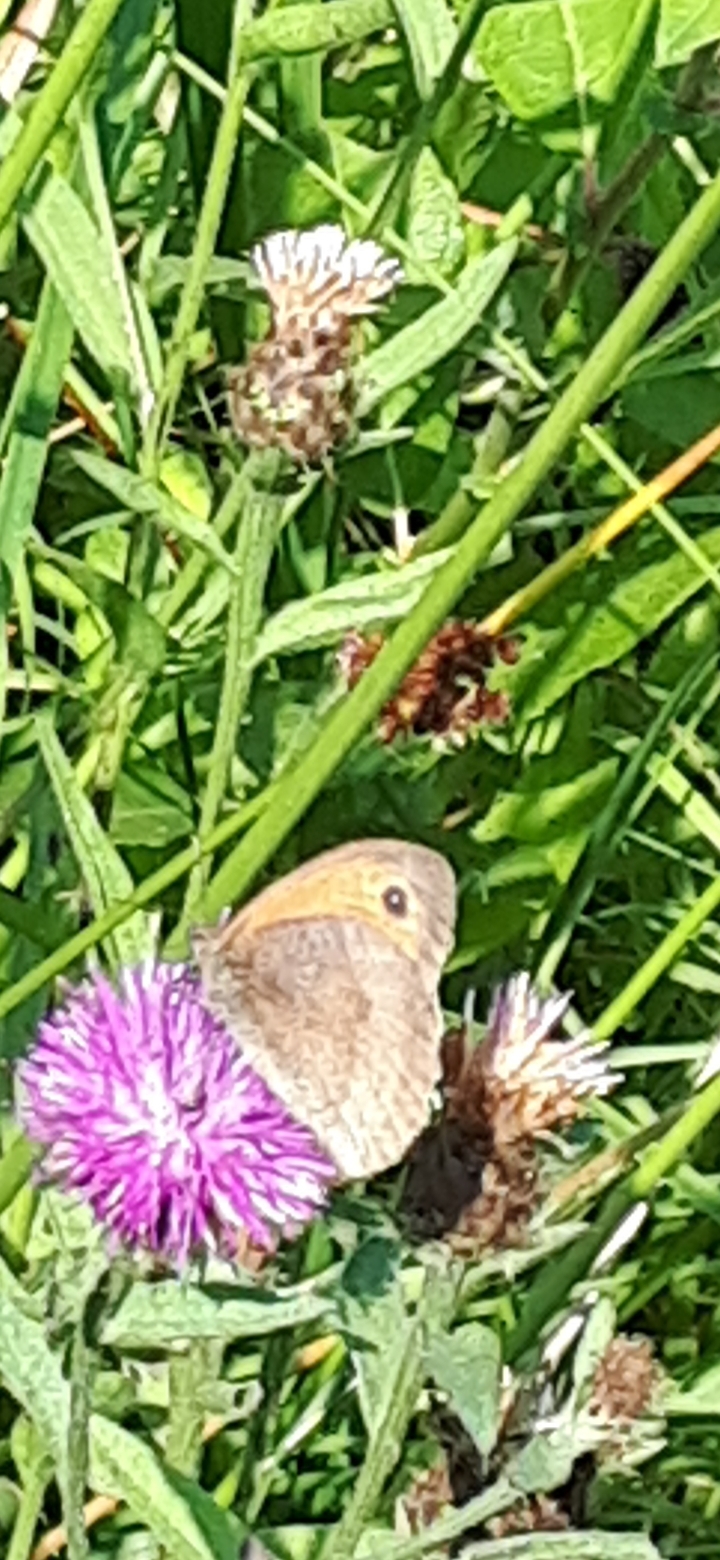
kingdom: Animalia
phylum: Arthropoda
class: Insecta
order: Lepidoptera
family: Nymphalidae
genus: Maniola
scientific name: Maniola jurtina
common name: Meadow brown
